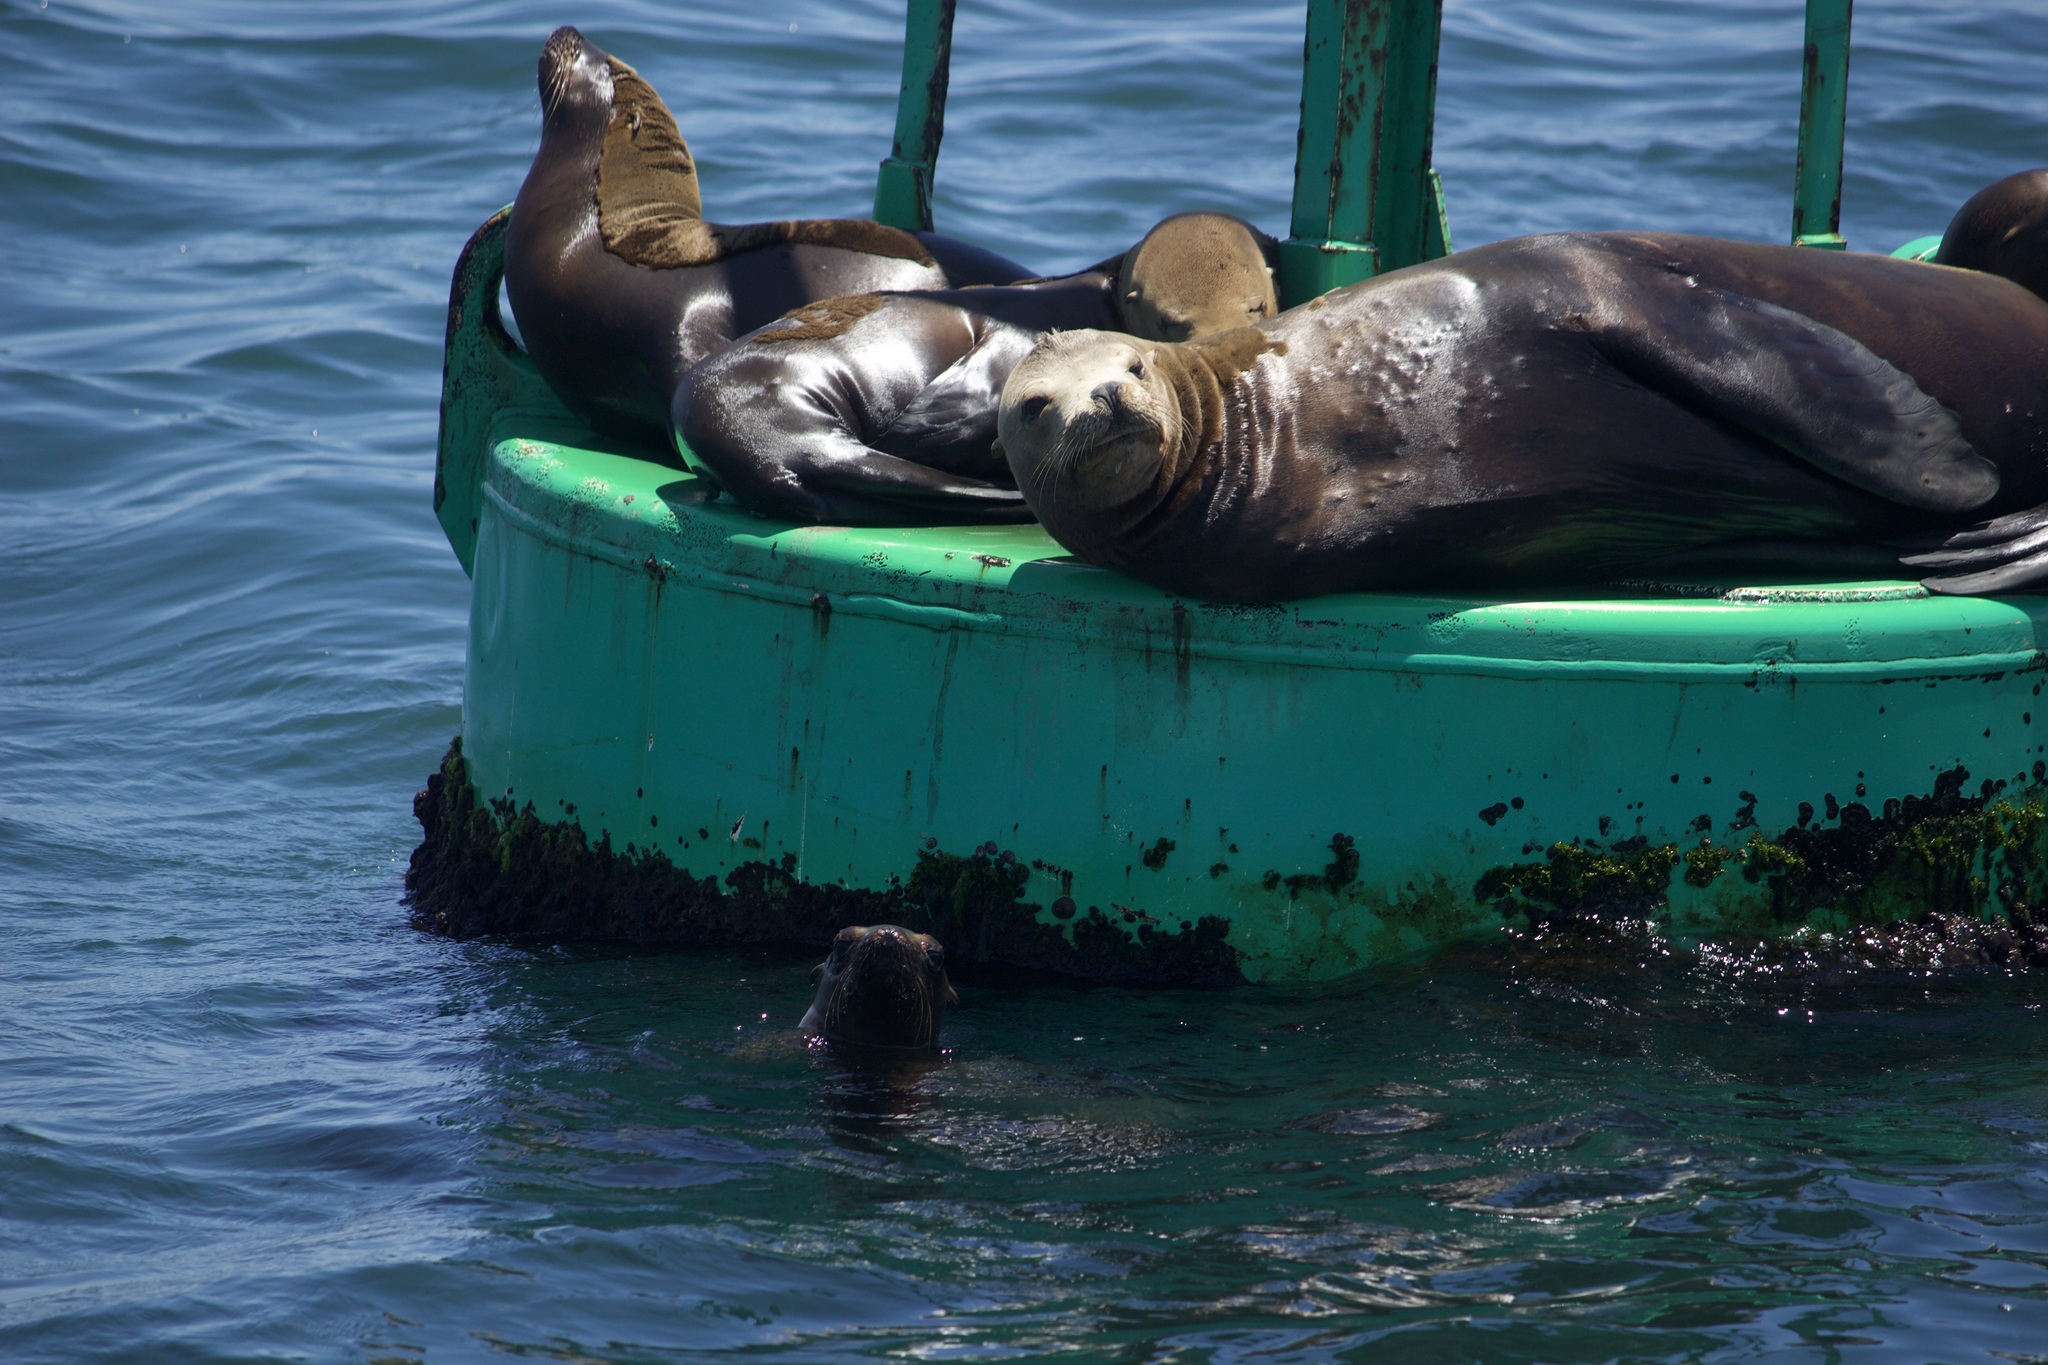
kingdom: Animalia
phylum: Chordata
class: Mammalia
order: Carnivora
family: Otariidae
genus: Zalophus
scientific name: Zalophus californianus
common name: California sea lion
